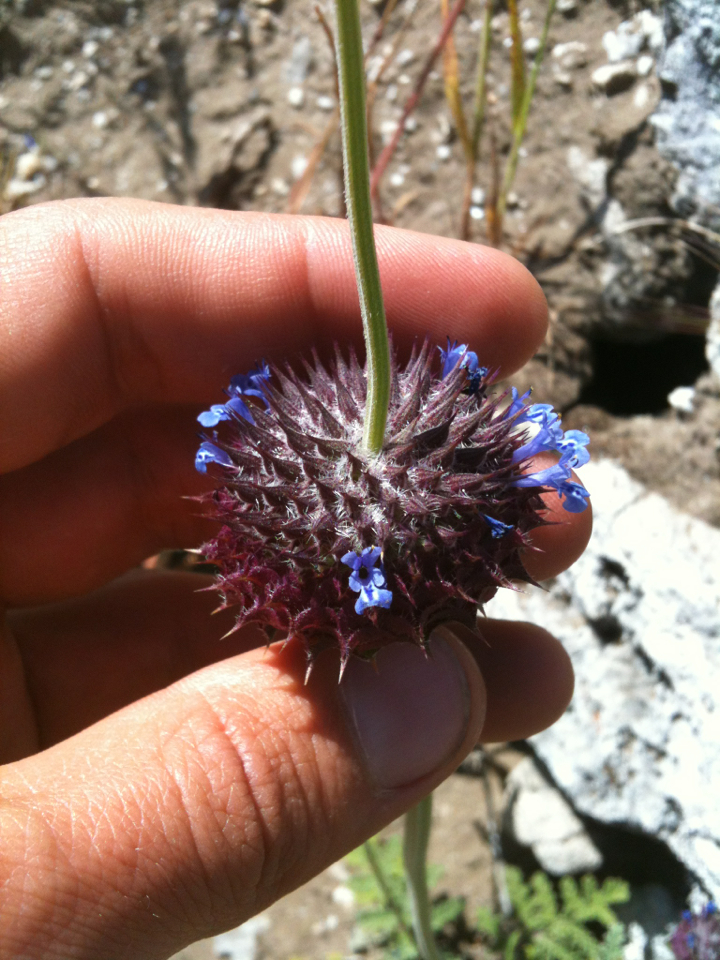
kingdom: Plantae
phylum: Tracheophyta
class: Magnoliopsida
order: Lamiales
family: Lamiaceae
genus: Salvia
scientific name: Salvia columbariae
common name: Chia
